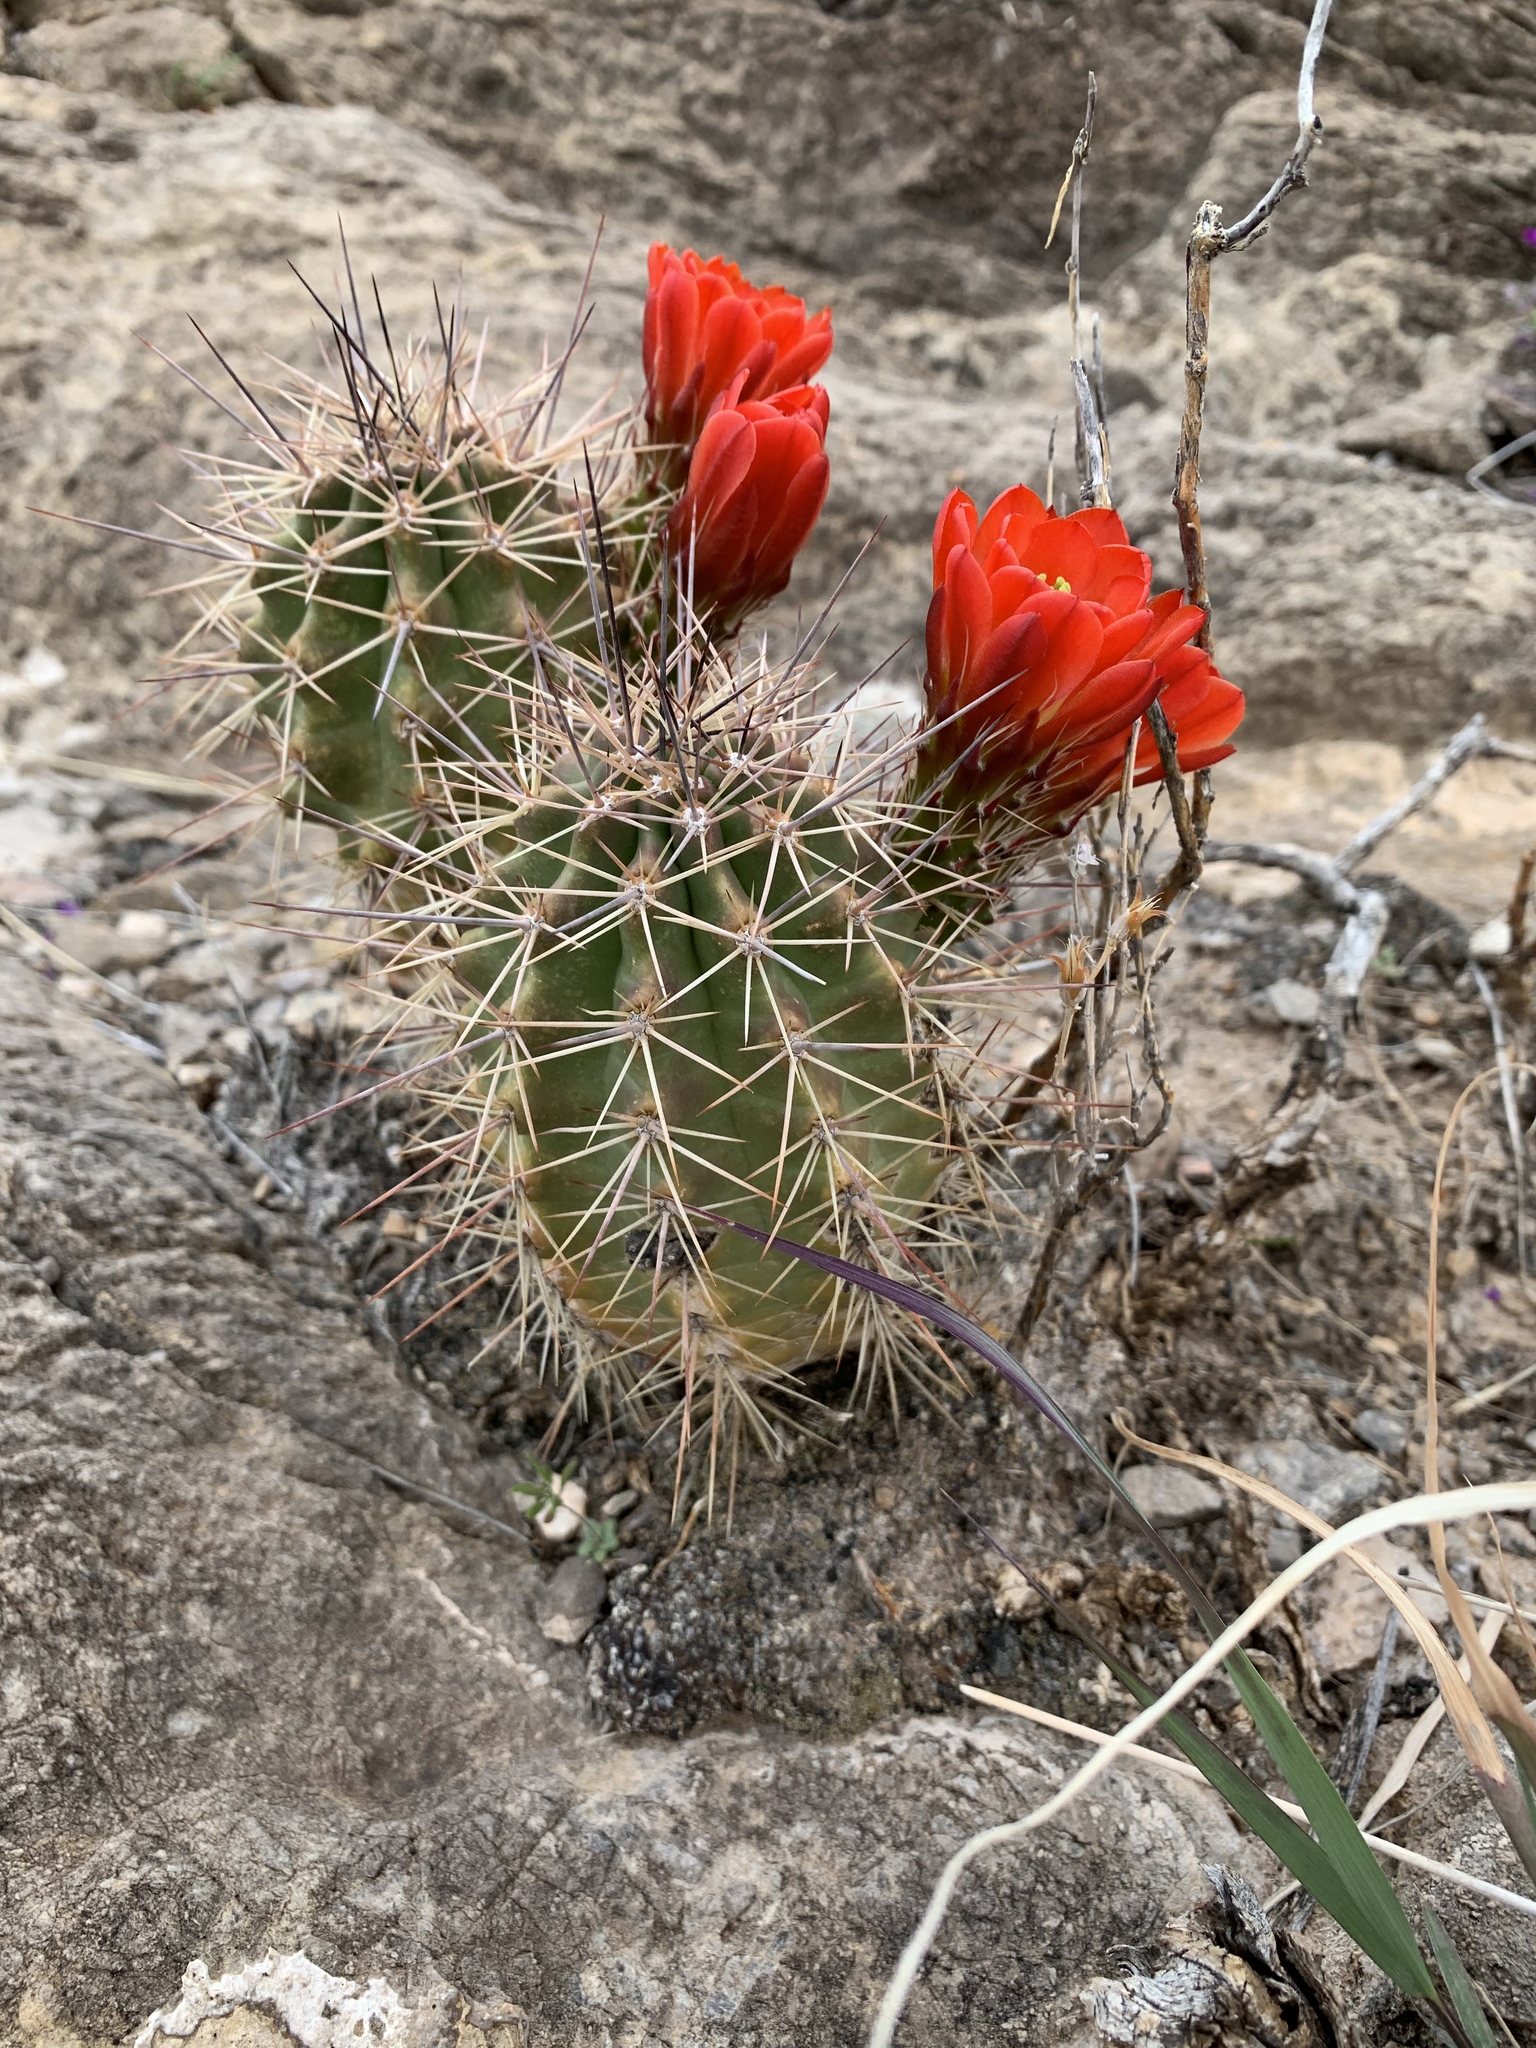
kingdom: Plantae
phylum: Tracheophyta
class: Magnoliopsida
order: Caryophyllales
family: Cactaceae
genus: Echinocereus
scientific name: Echinocereus coccineus
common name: Scarlet hedgehog cactus
